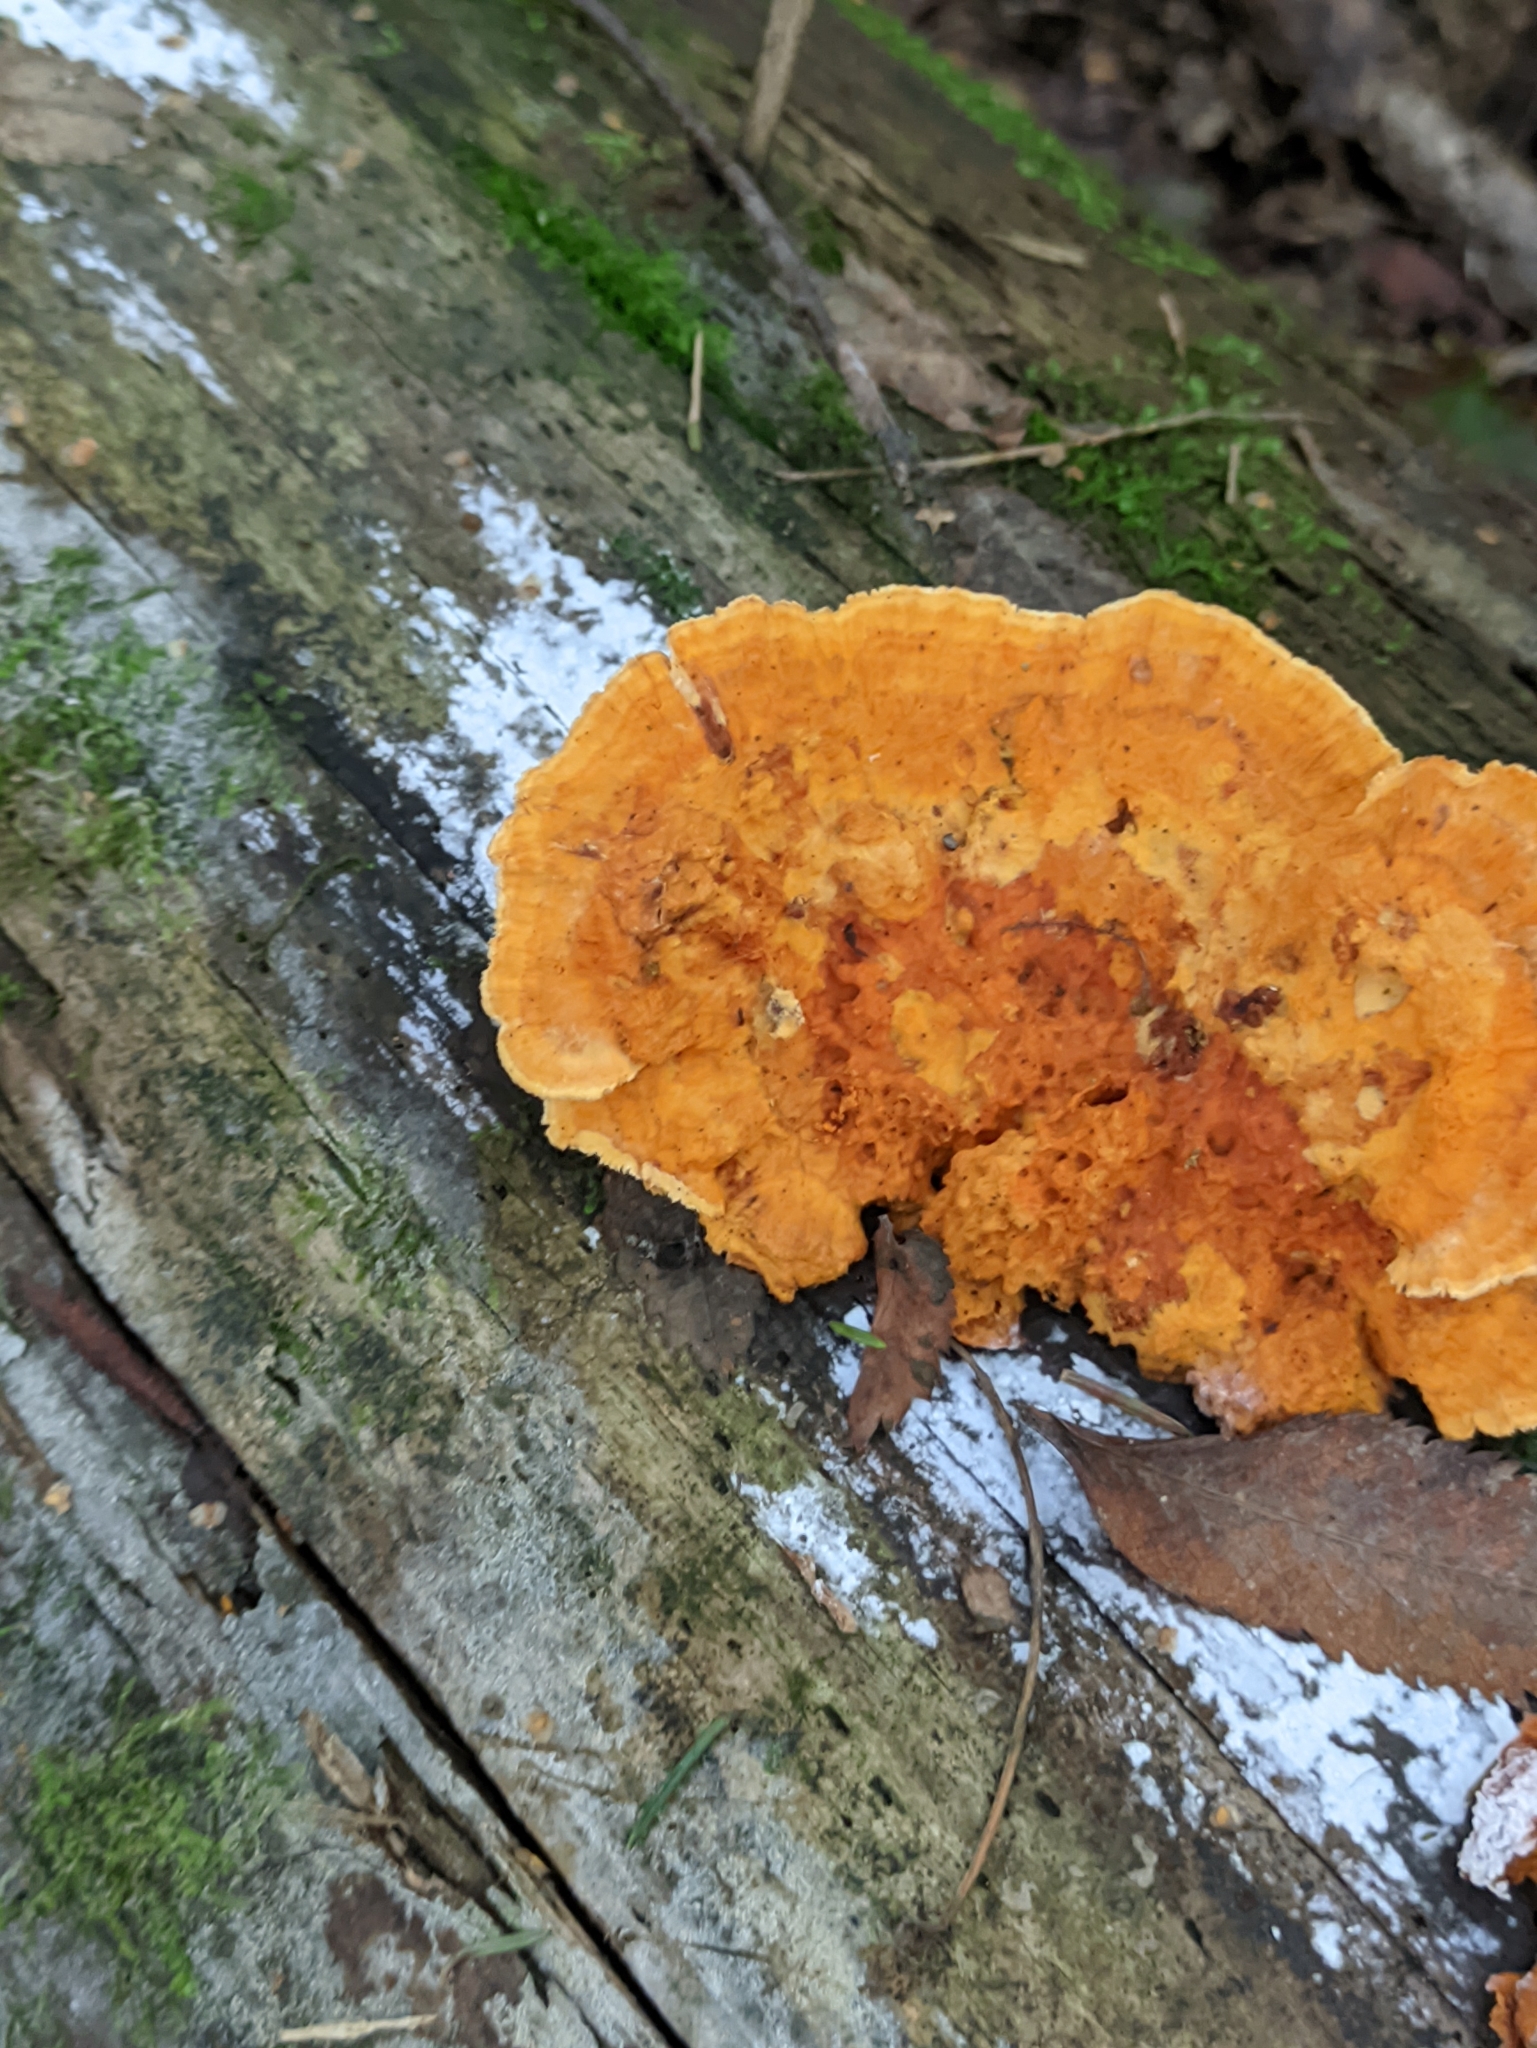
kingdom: Fungi
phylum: Basidiomycota
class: Agaricomycetes
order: Polyporales
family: Pycnoporellaceae
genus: Pycnoporellus
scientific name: Pycnoporellus fulgens
